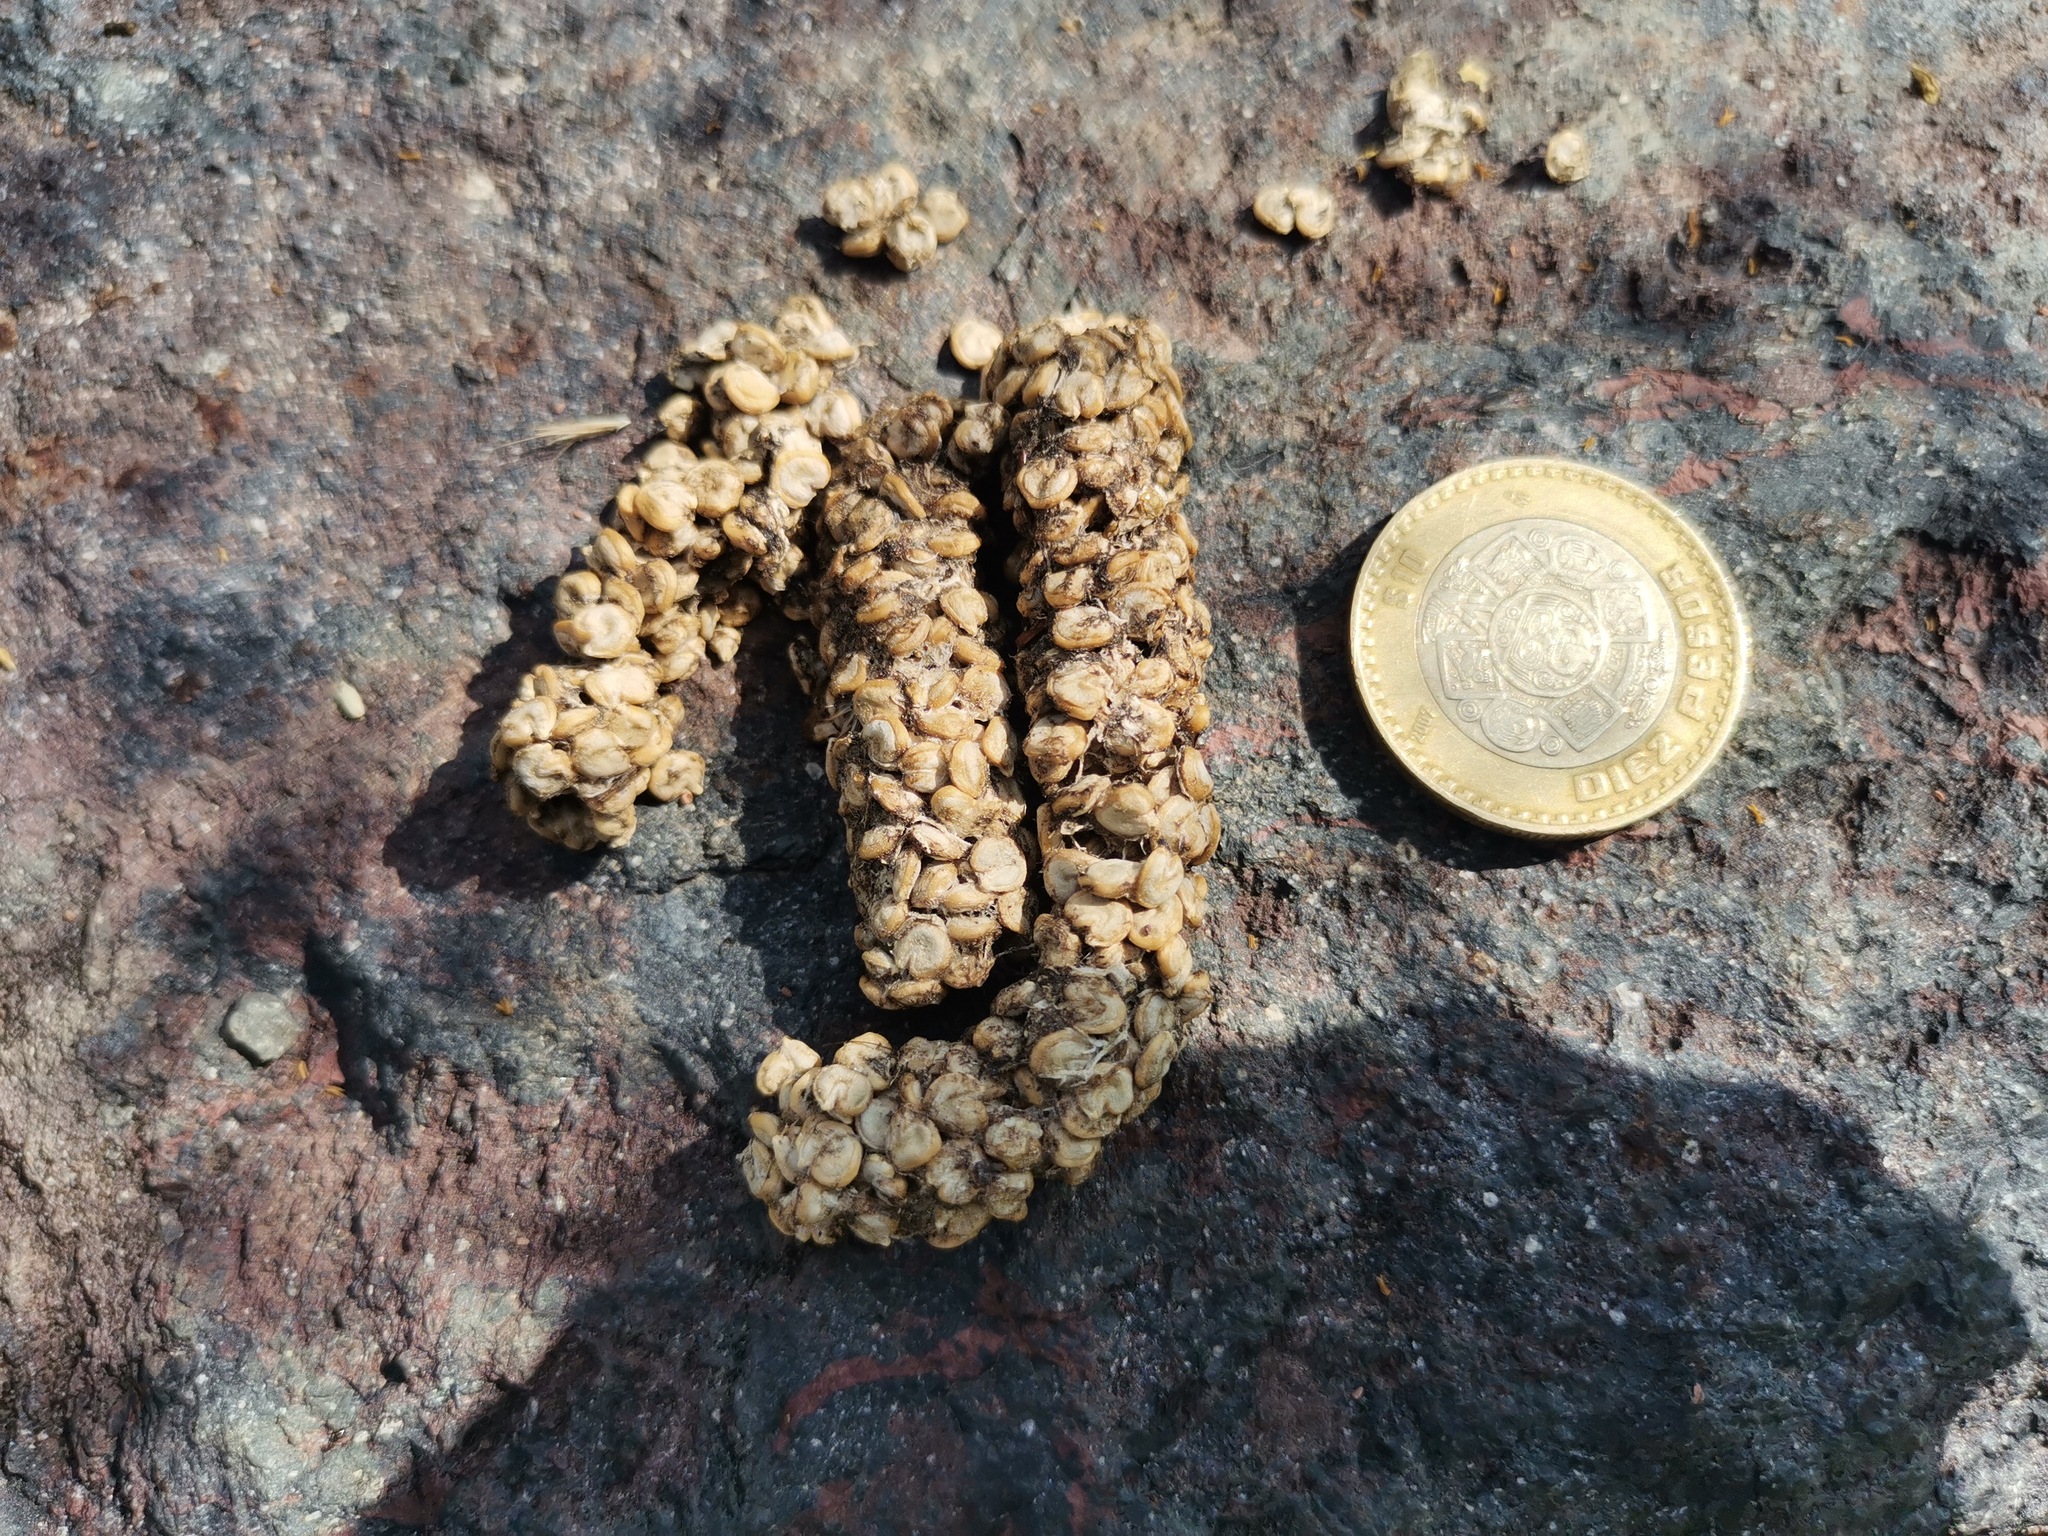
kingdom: Animalia
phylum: Chordata
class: Mammalia
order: Carnivora
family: Procyonidae
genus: Bassariscus
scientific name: Bassariscus astutus
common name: Ringtail
